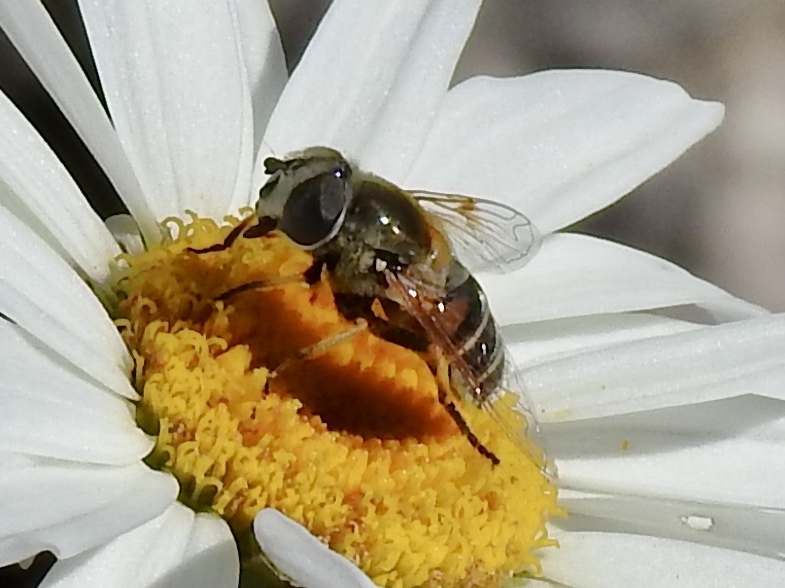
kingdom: Animalia
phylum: Arthropoda
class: Insecta
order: Diptera
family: Syrphidae
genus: Eristalis
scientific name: Eristalis stipator
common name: Yellow-shouldered drone fly
